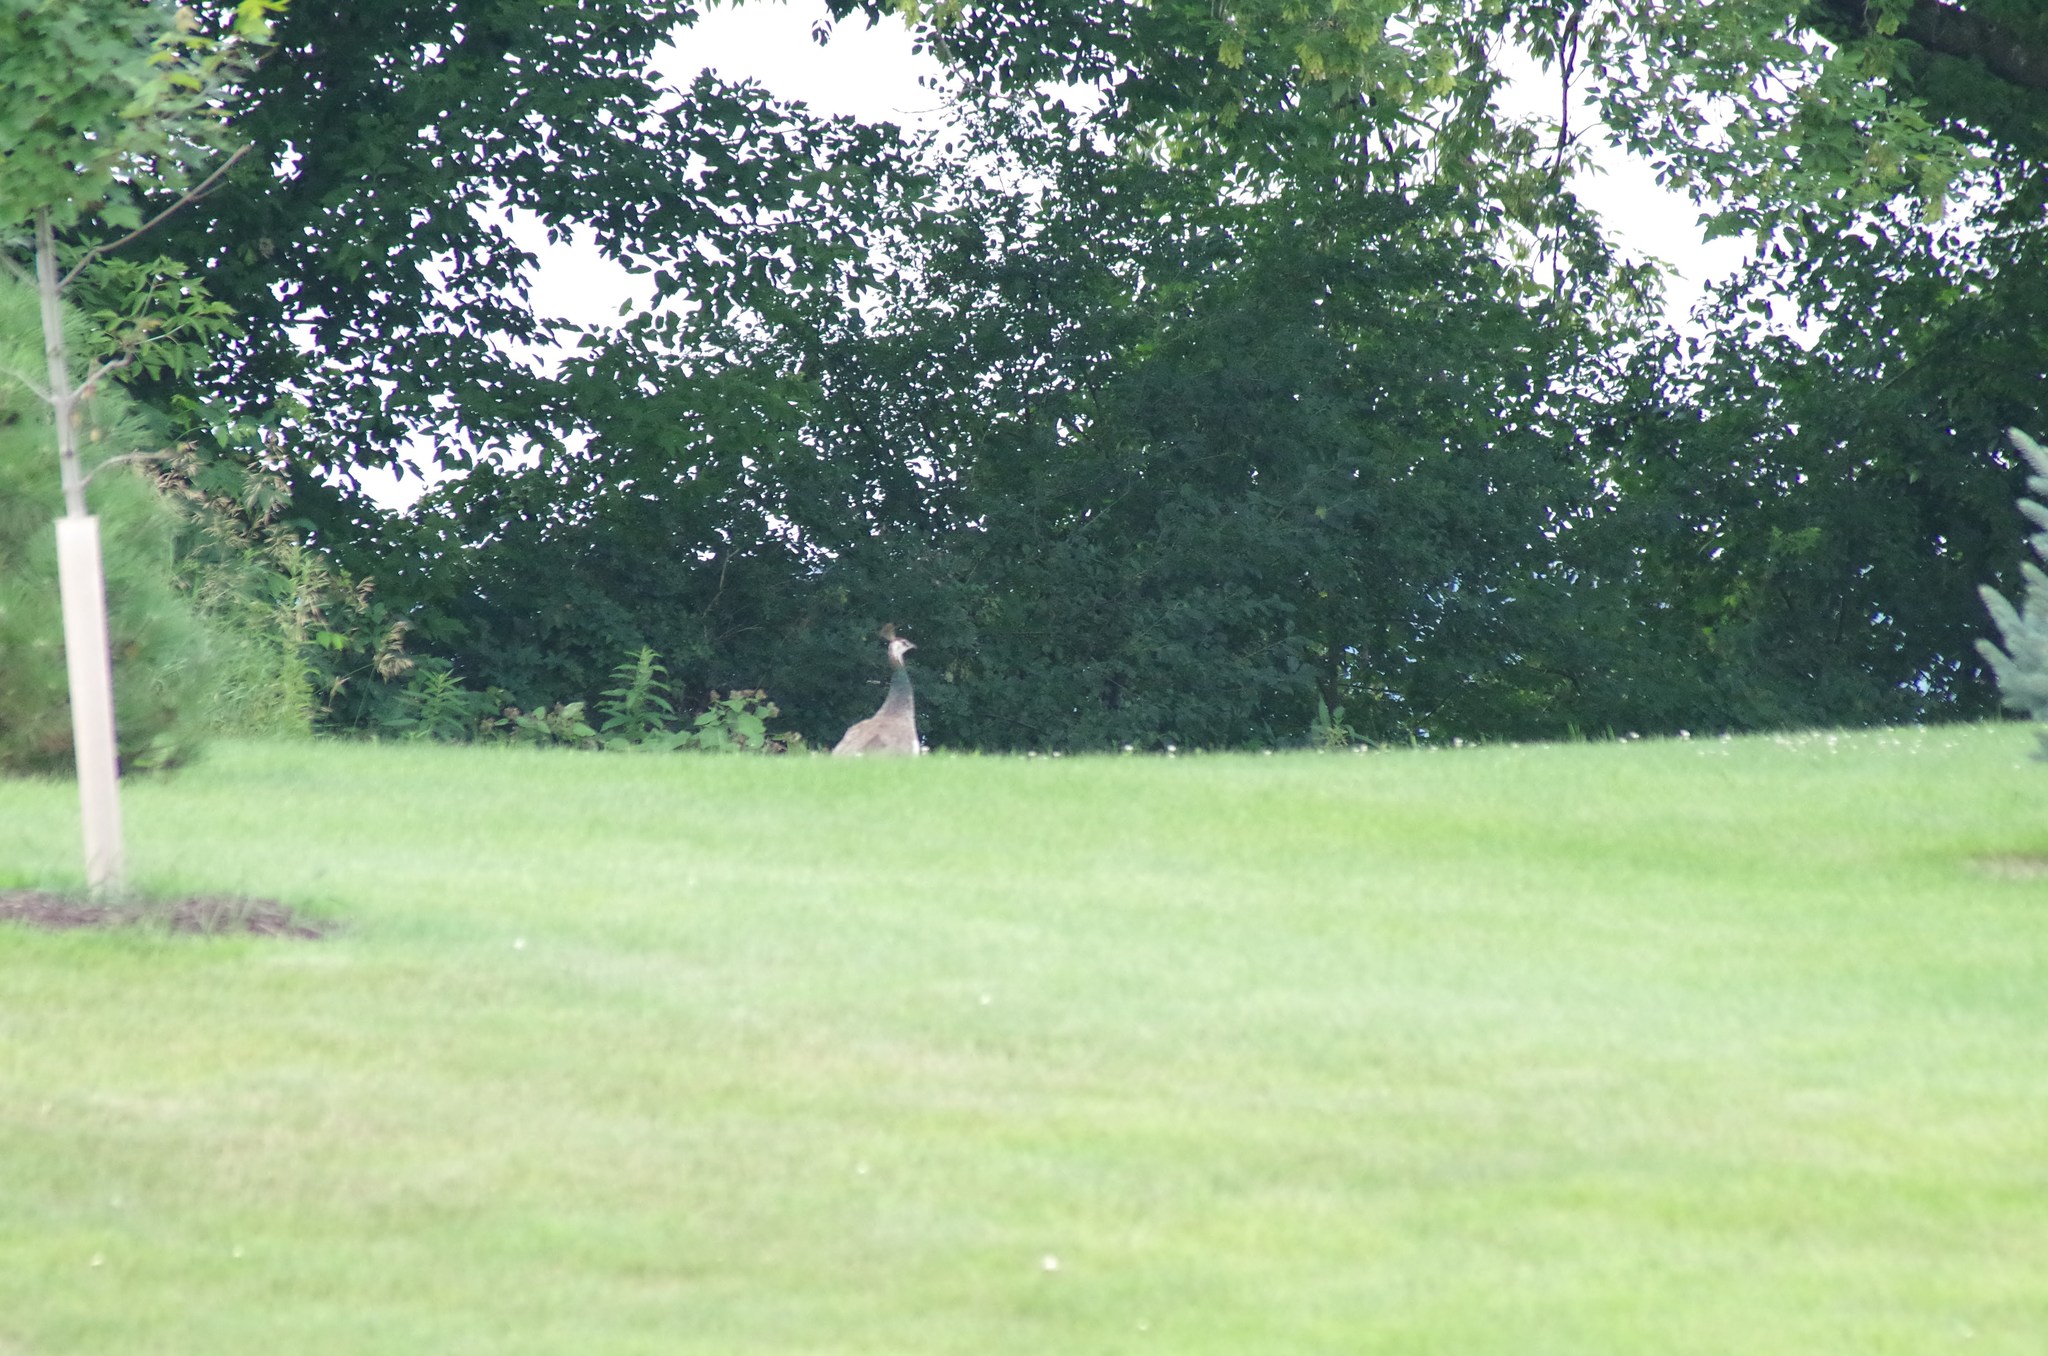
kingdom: Animalia
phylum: Chordata
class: Aves
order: Galliformes
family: Phasianidae
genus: Pavo
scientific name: Pavo cristatus
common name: Indian peafowl
